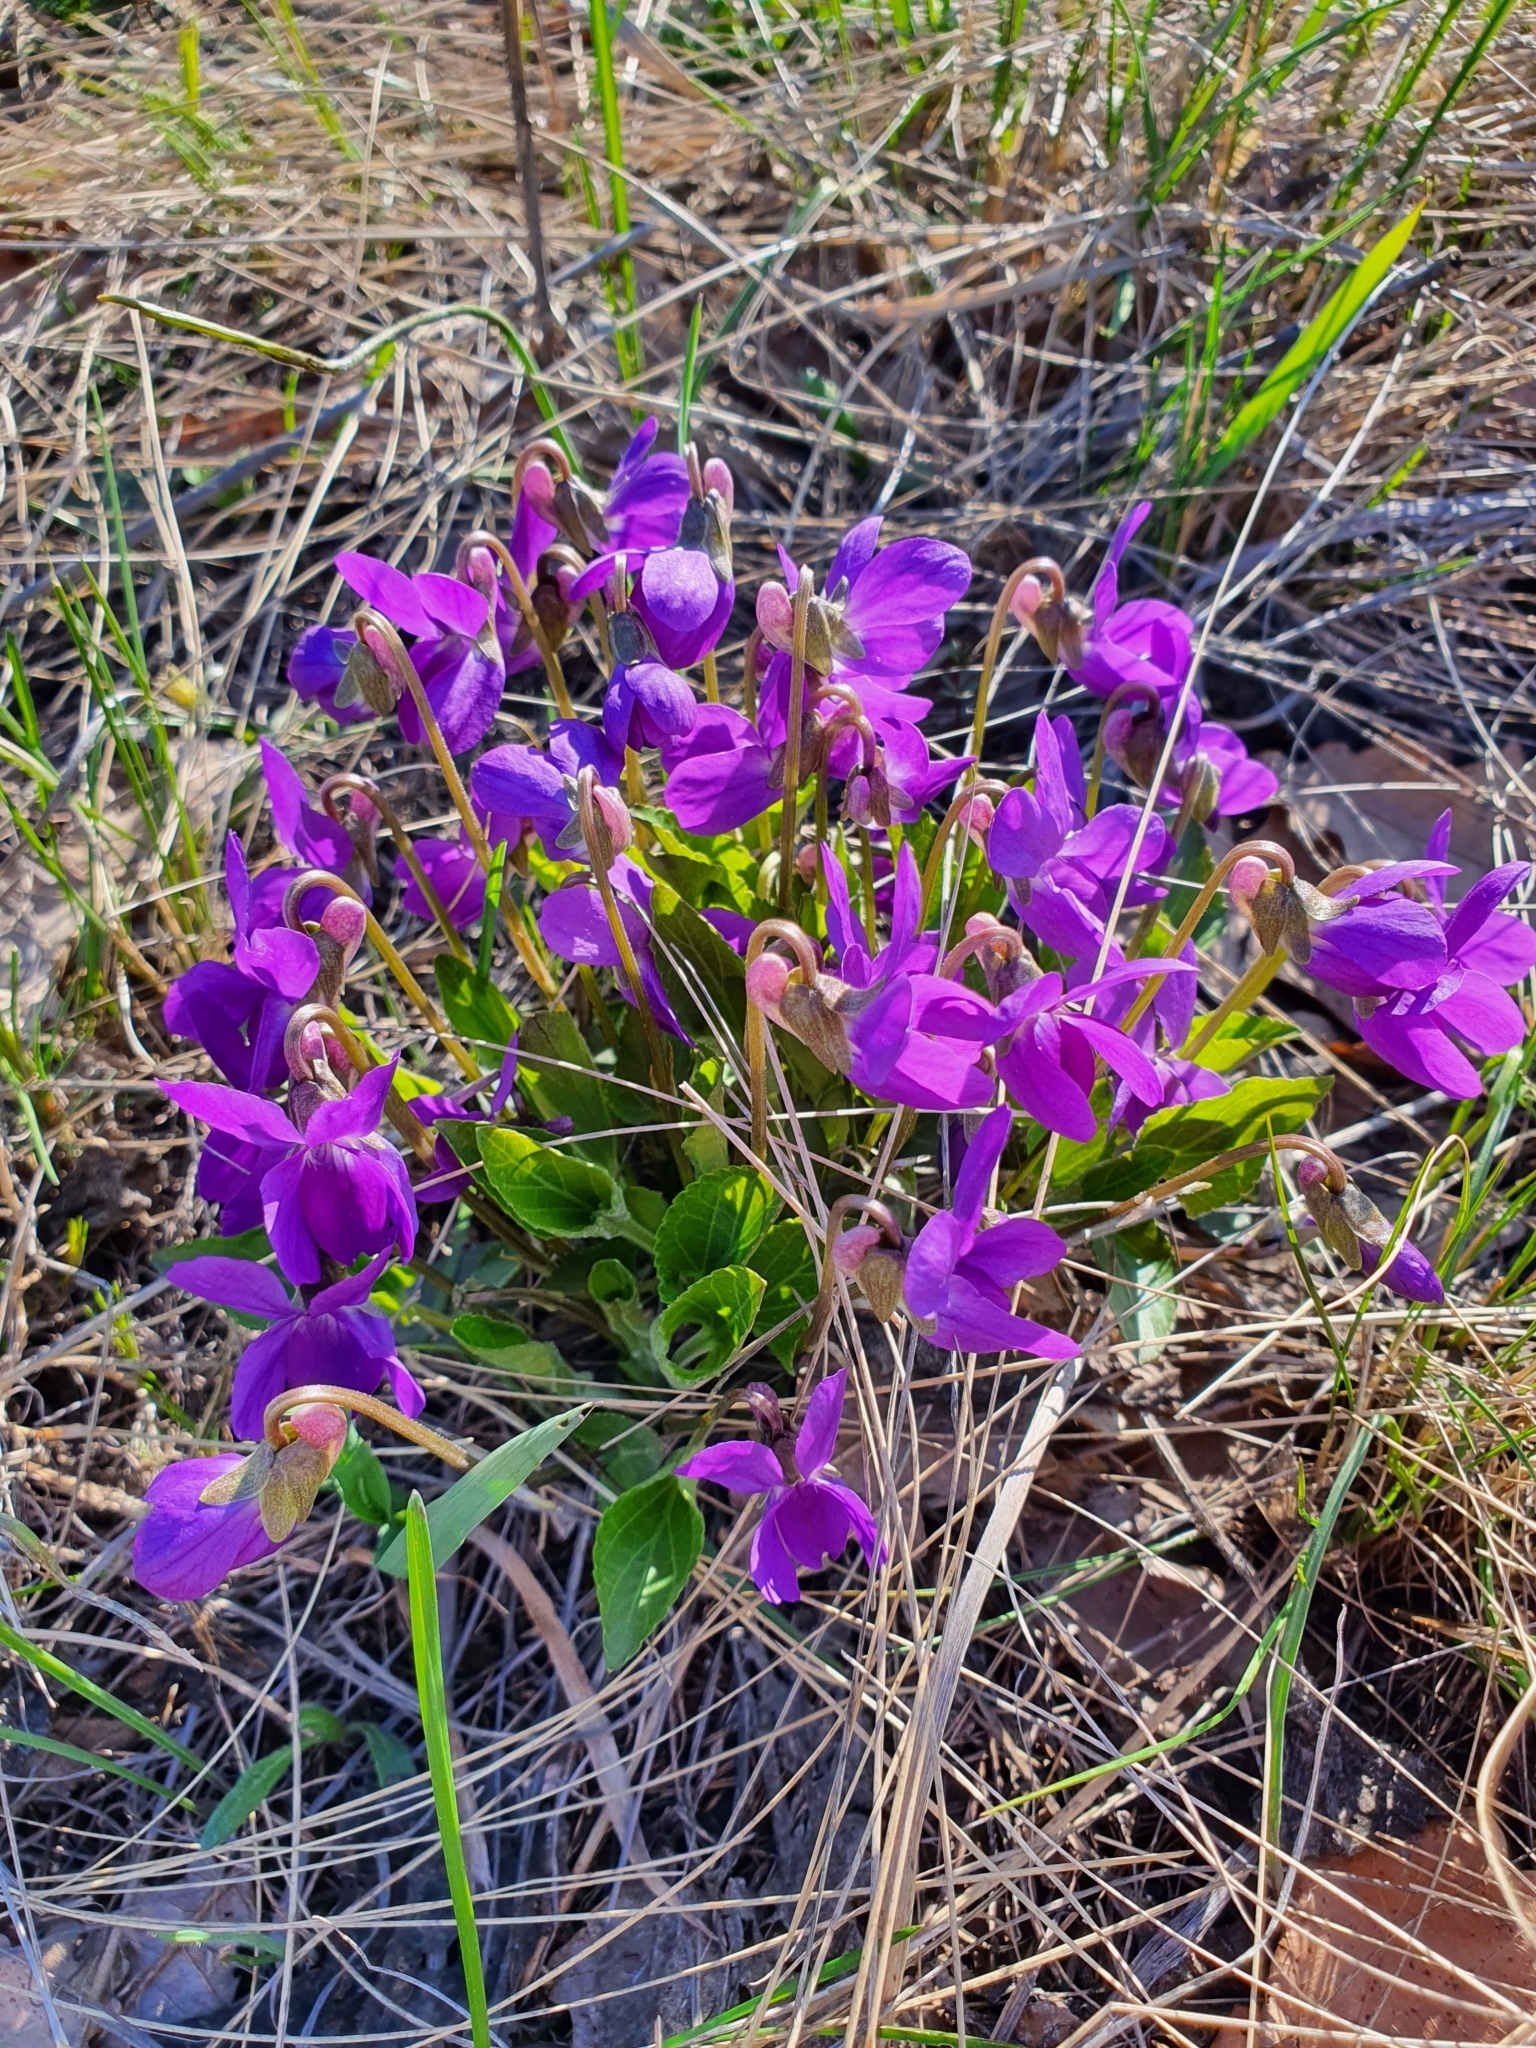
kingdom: Plantae
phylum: Tracheophyta
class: Magnoliopsida
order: Malpighiales
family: Violaceae
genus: Viola
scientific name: Viola ambigua
